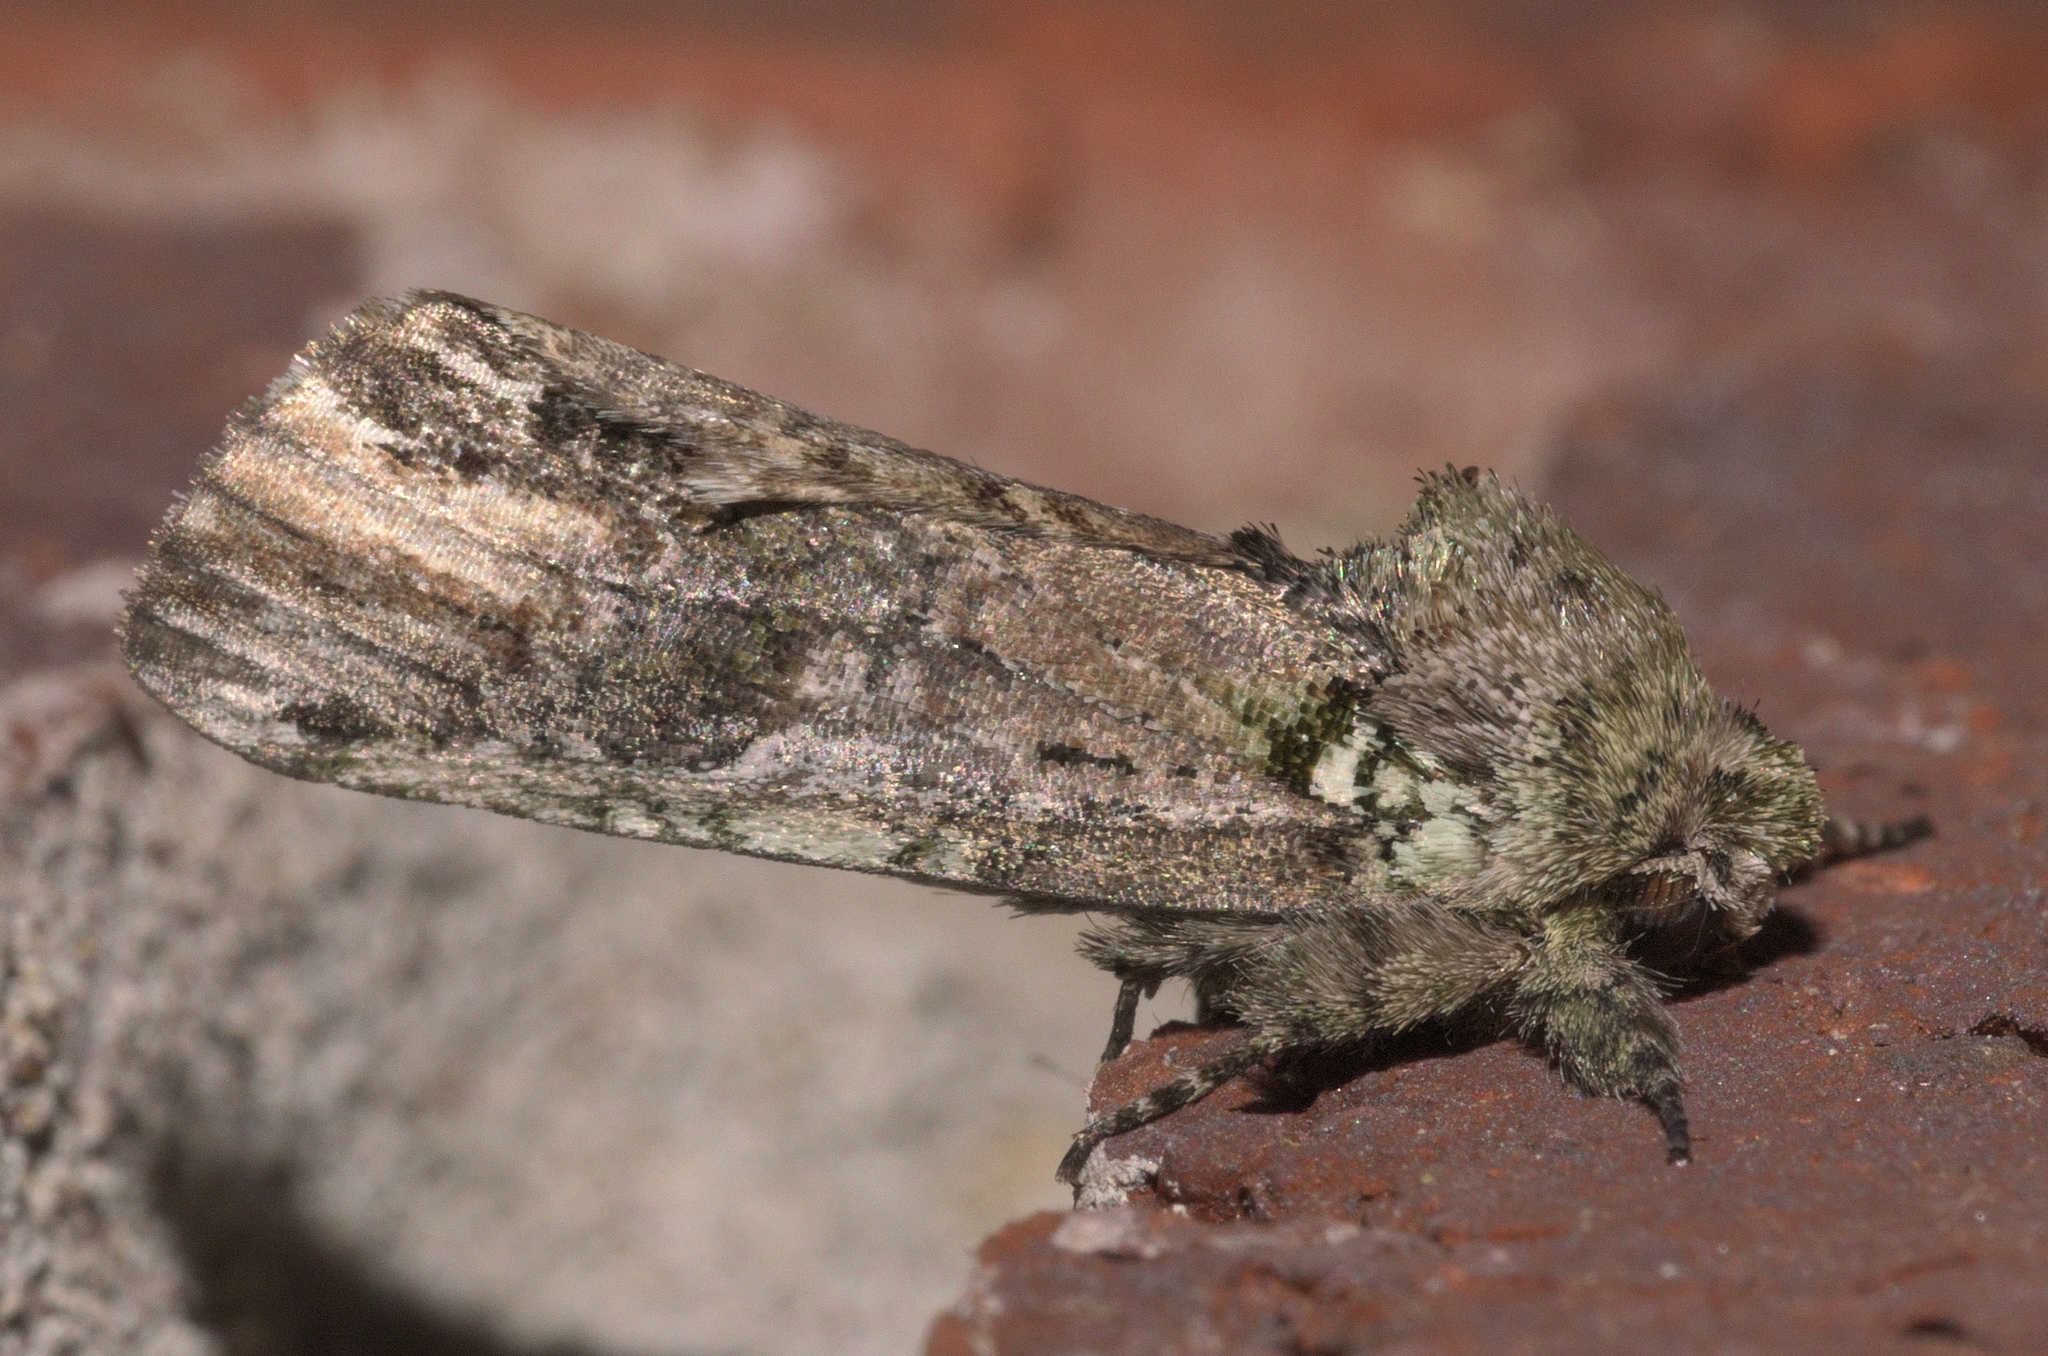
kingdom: Animalia
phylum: Arthropoda
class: Insecta
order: Lepidoptera
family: Notodontidae
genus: Schizura
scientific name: Schizura
